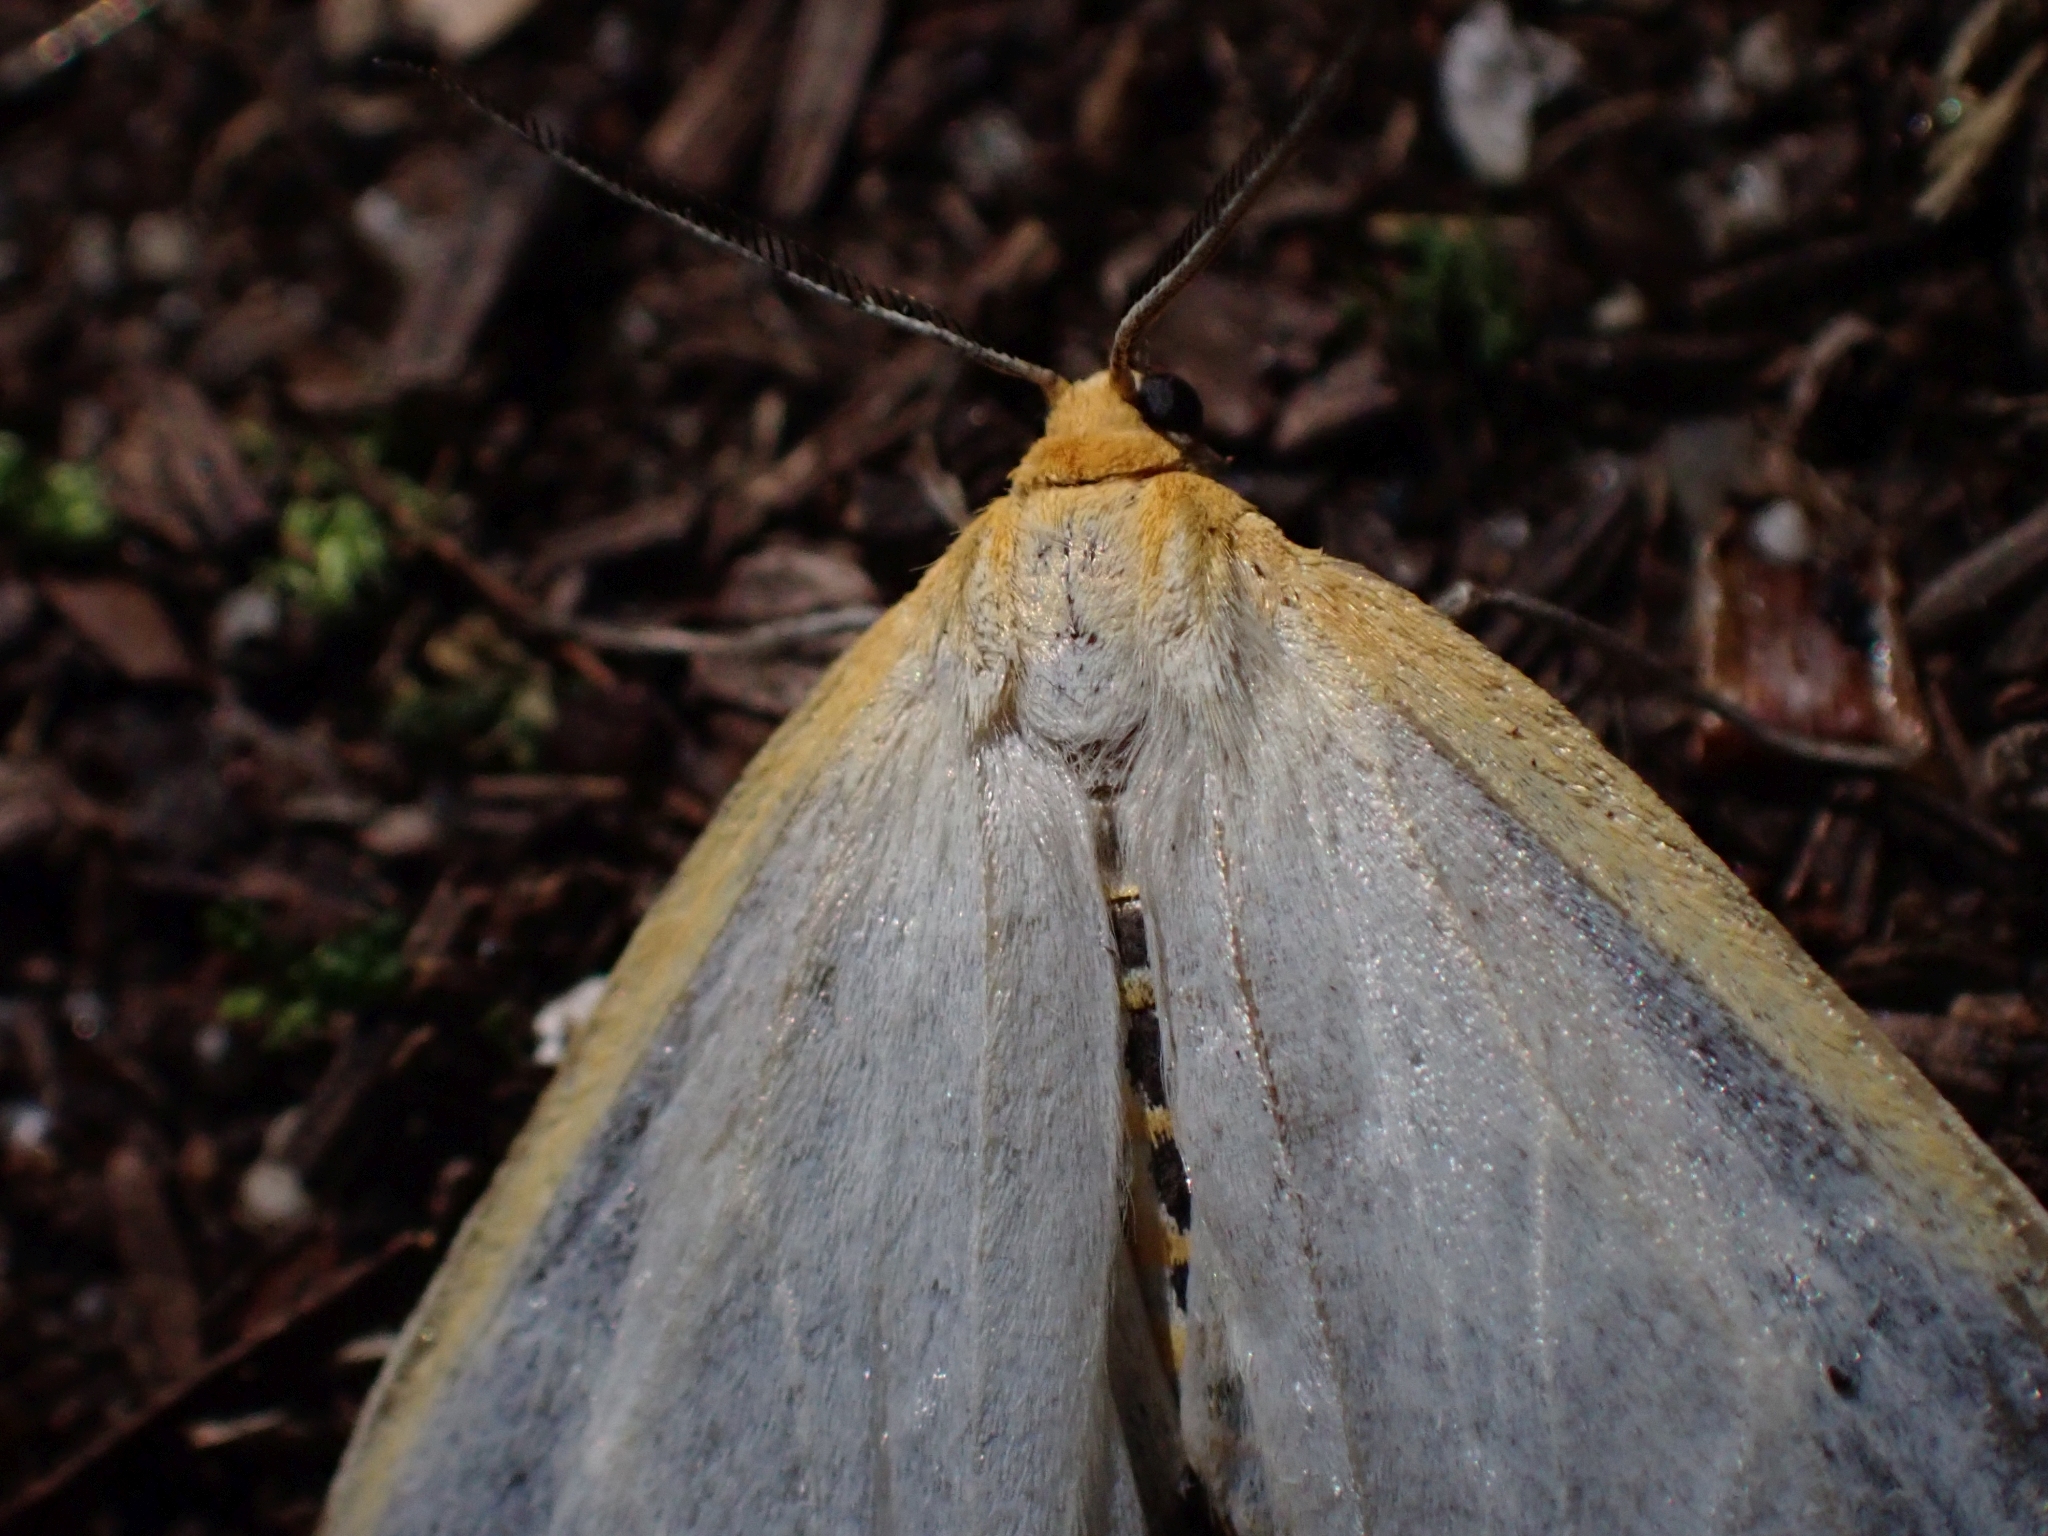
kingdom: Animalia
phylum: Arthropoda
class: Insecta
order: Lepidoptera
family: Erebidae
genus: Cycnia
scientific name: Cycnia tenera
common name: Delicate cycnia moth
